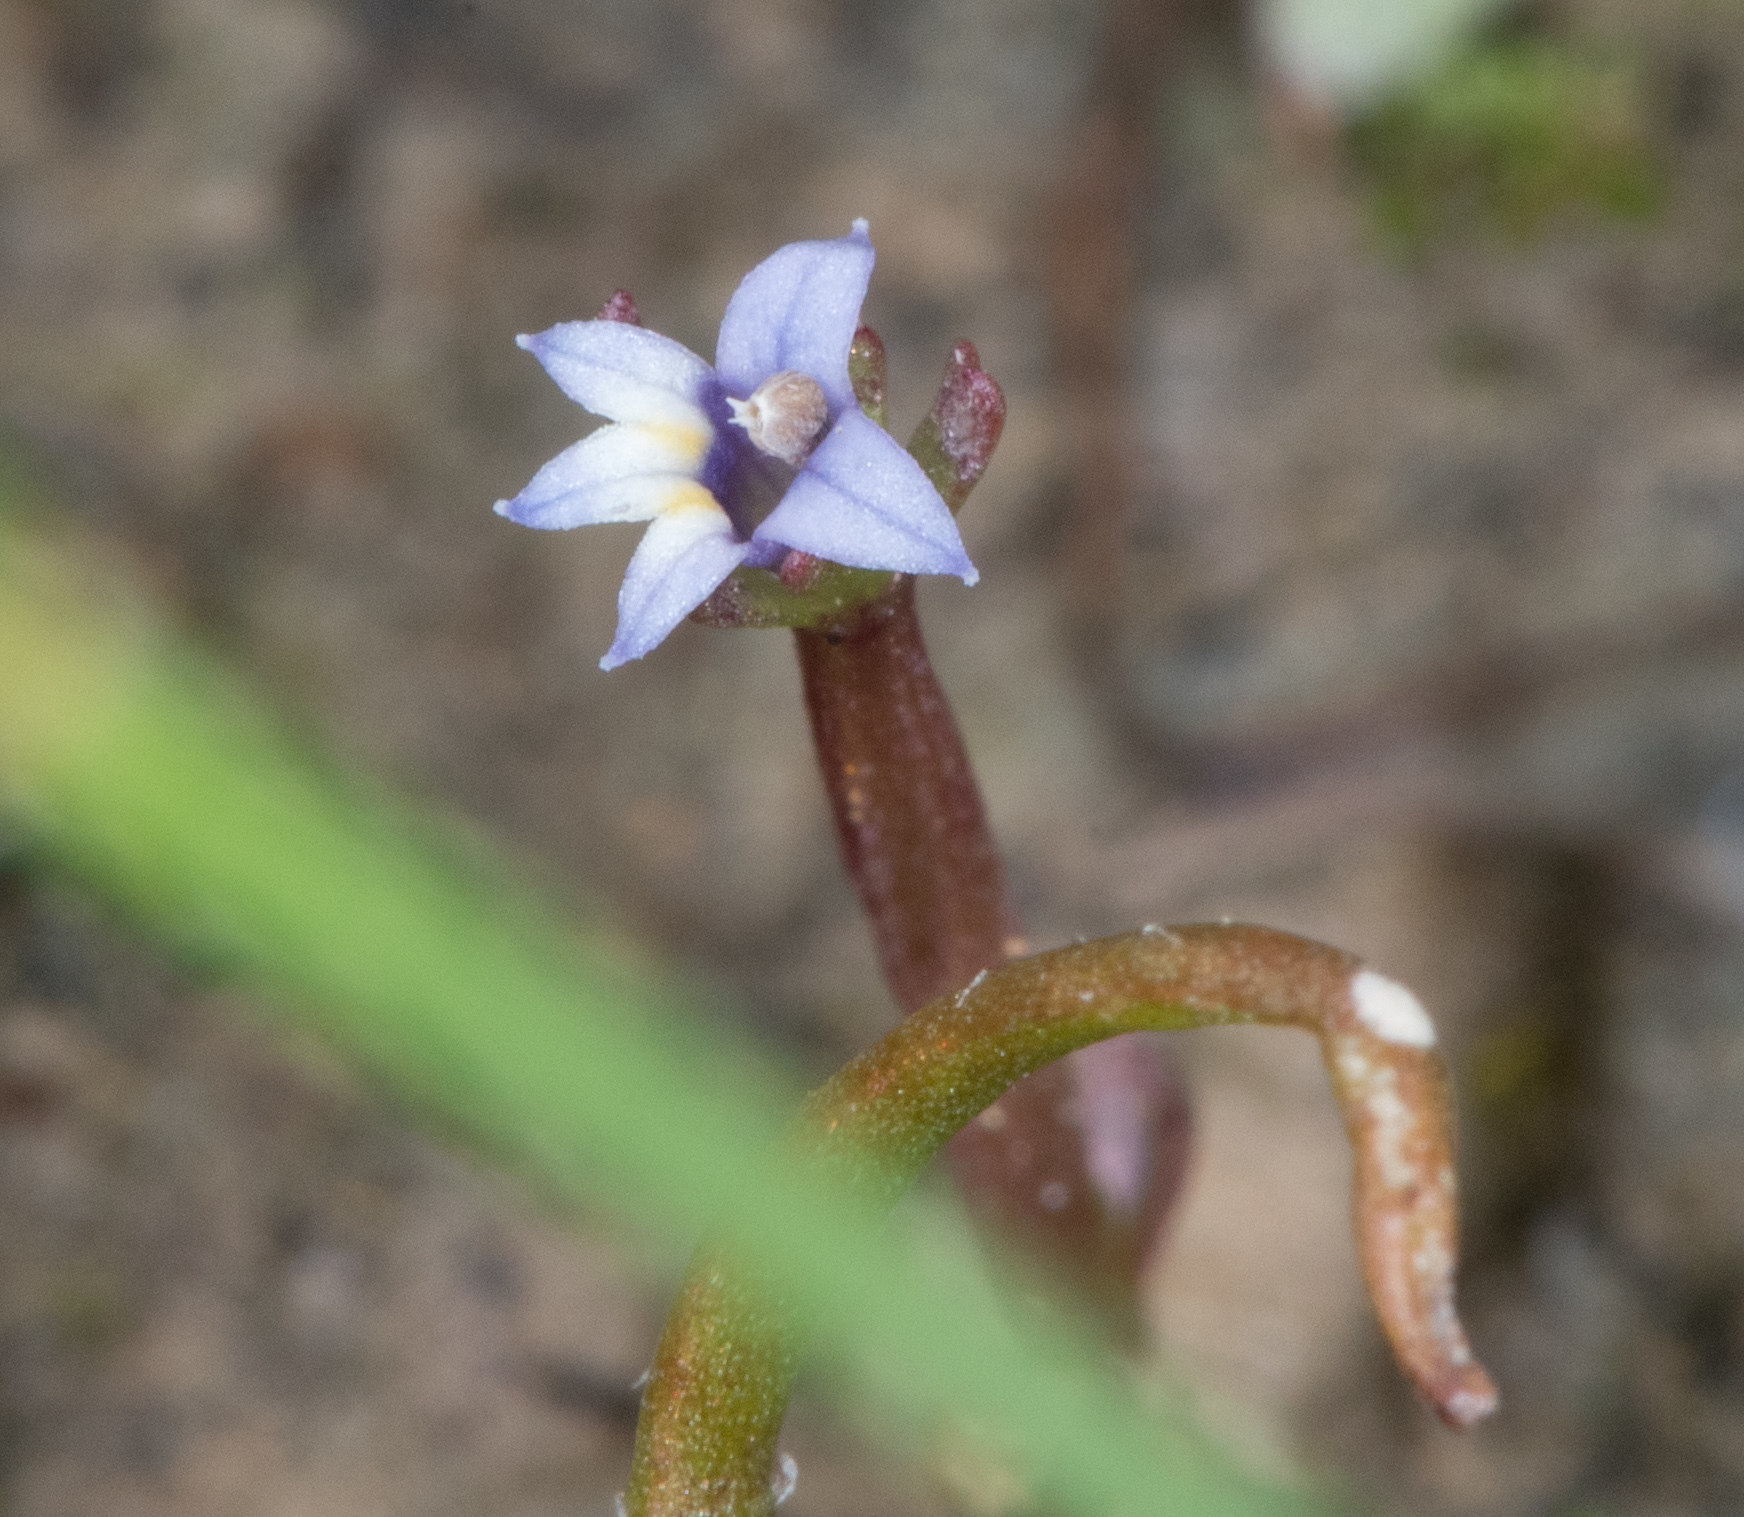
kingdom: Plantae
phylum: Tracheophyta
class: Magnoliopsida
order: Asterales
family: Campanulaceae
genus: Downingia
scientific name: Downingia pusilla
